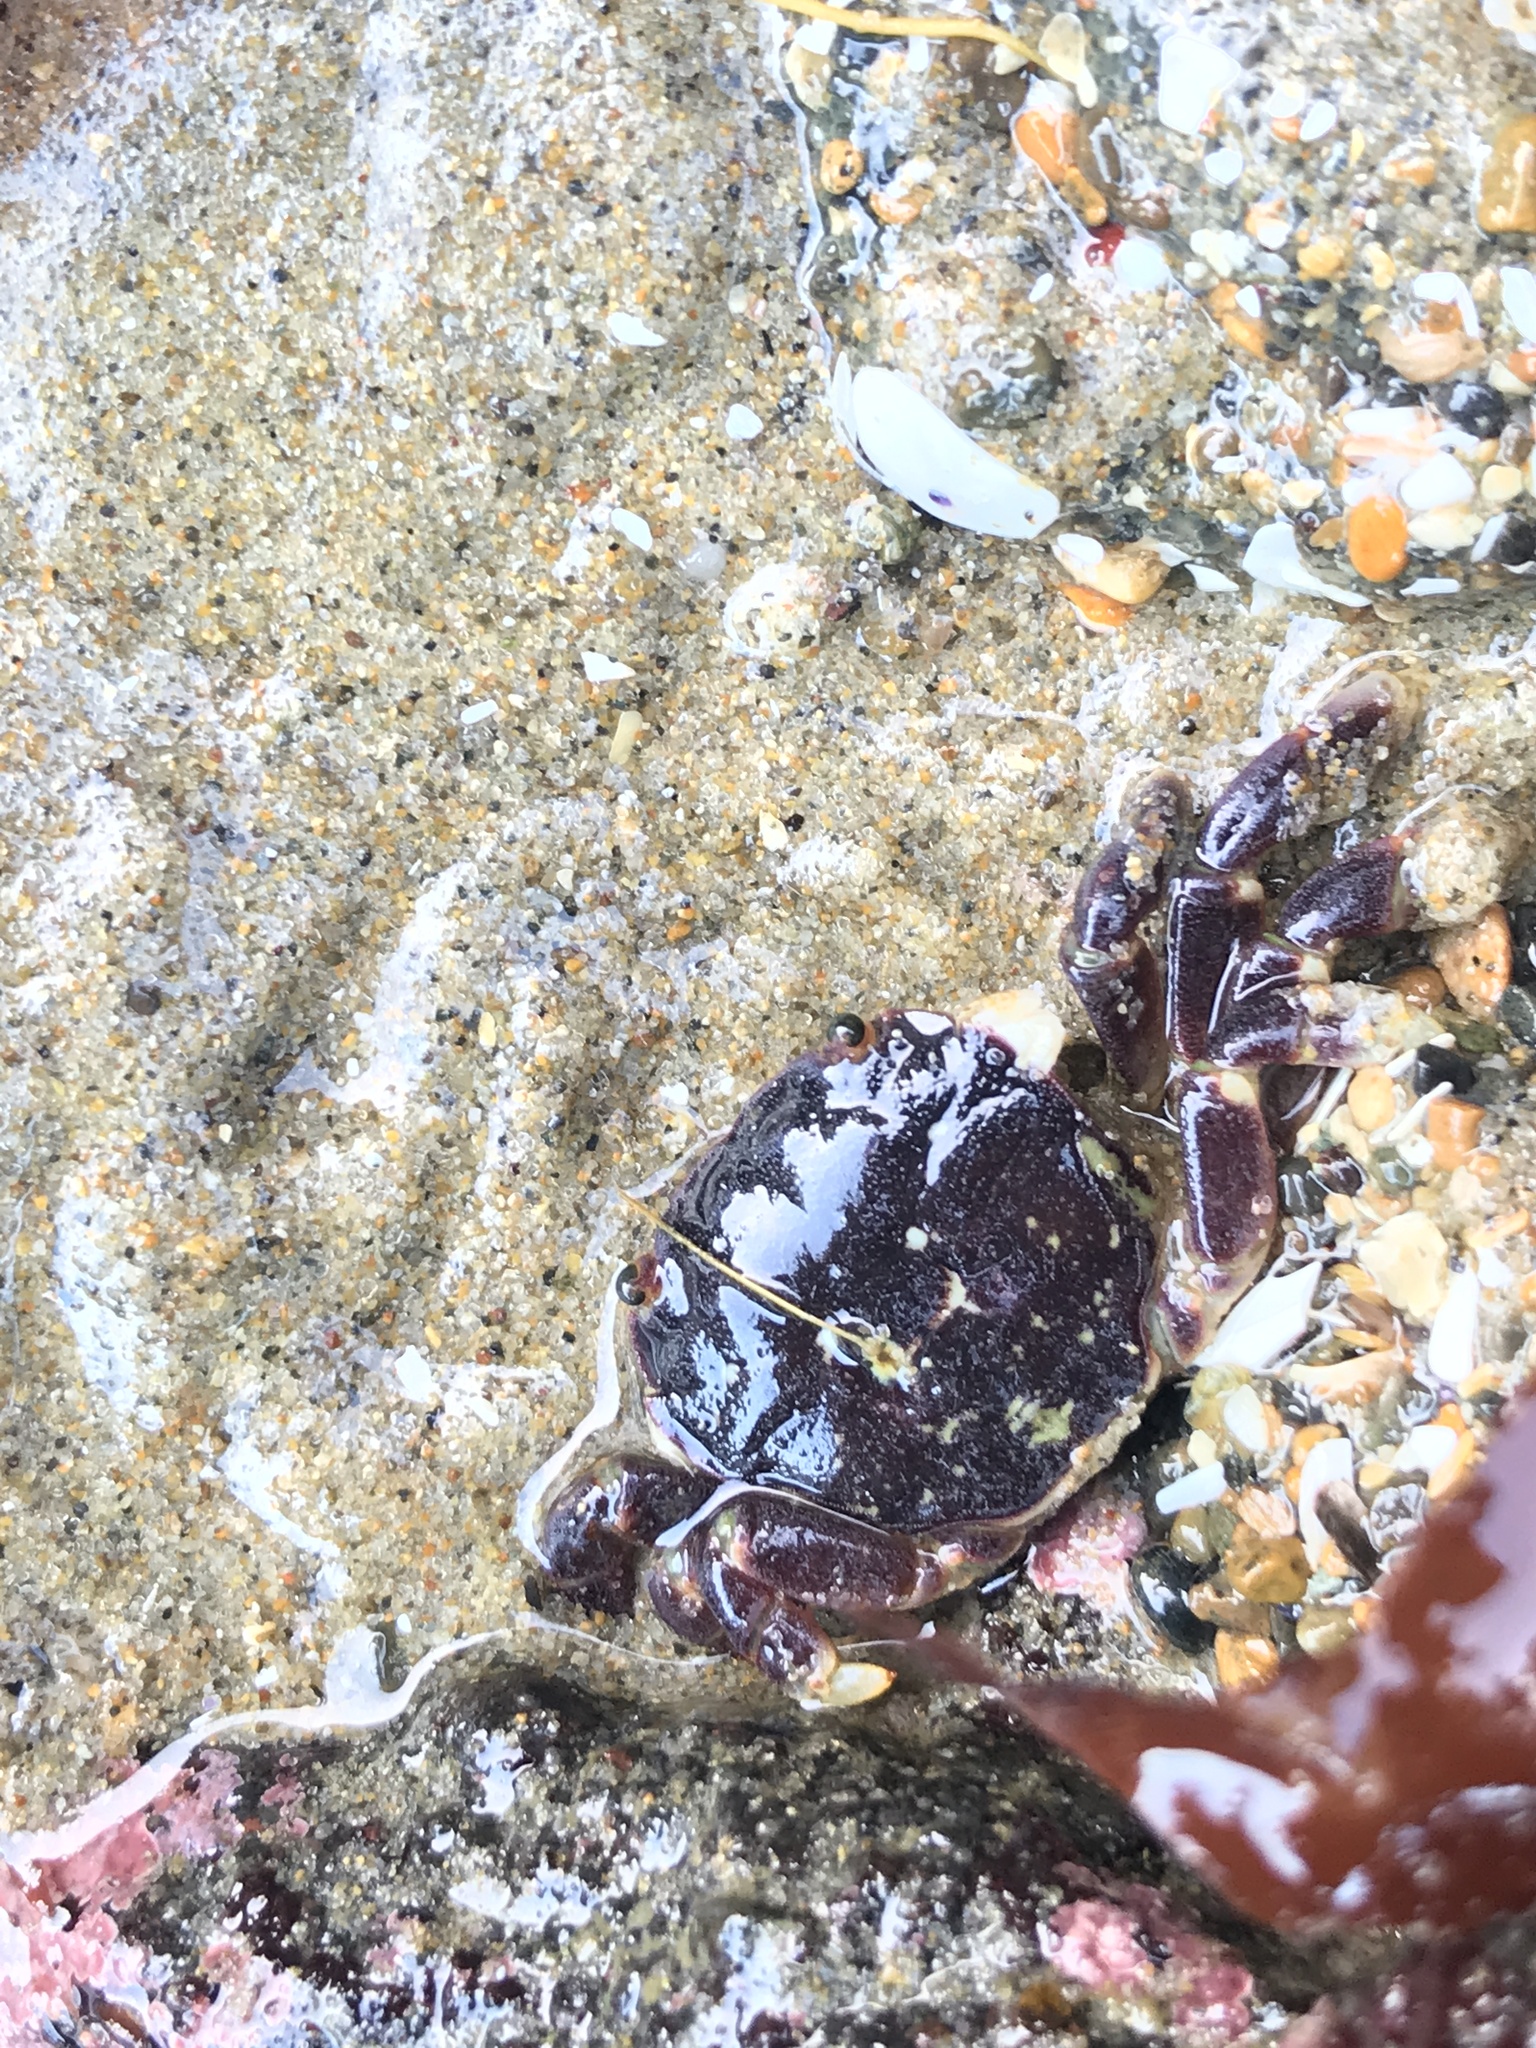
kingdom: Animalia
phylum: Arthropoda
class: Malacostraca
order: Decapoda
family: Varunidae
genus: Hemigrapsus
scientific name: Hemigrapsus nudus
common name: Purple shore crab
